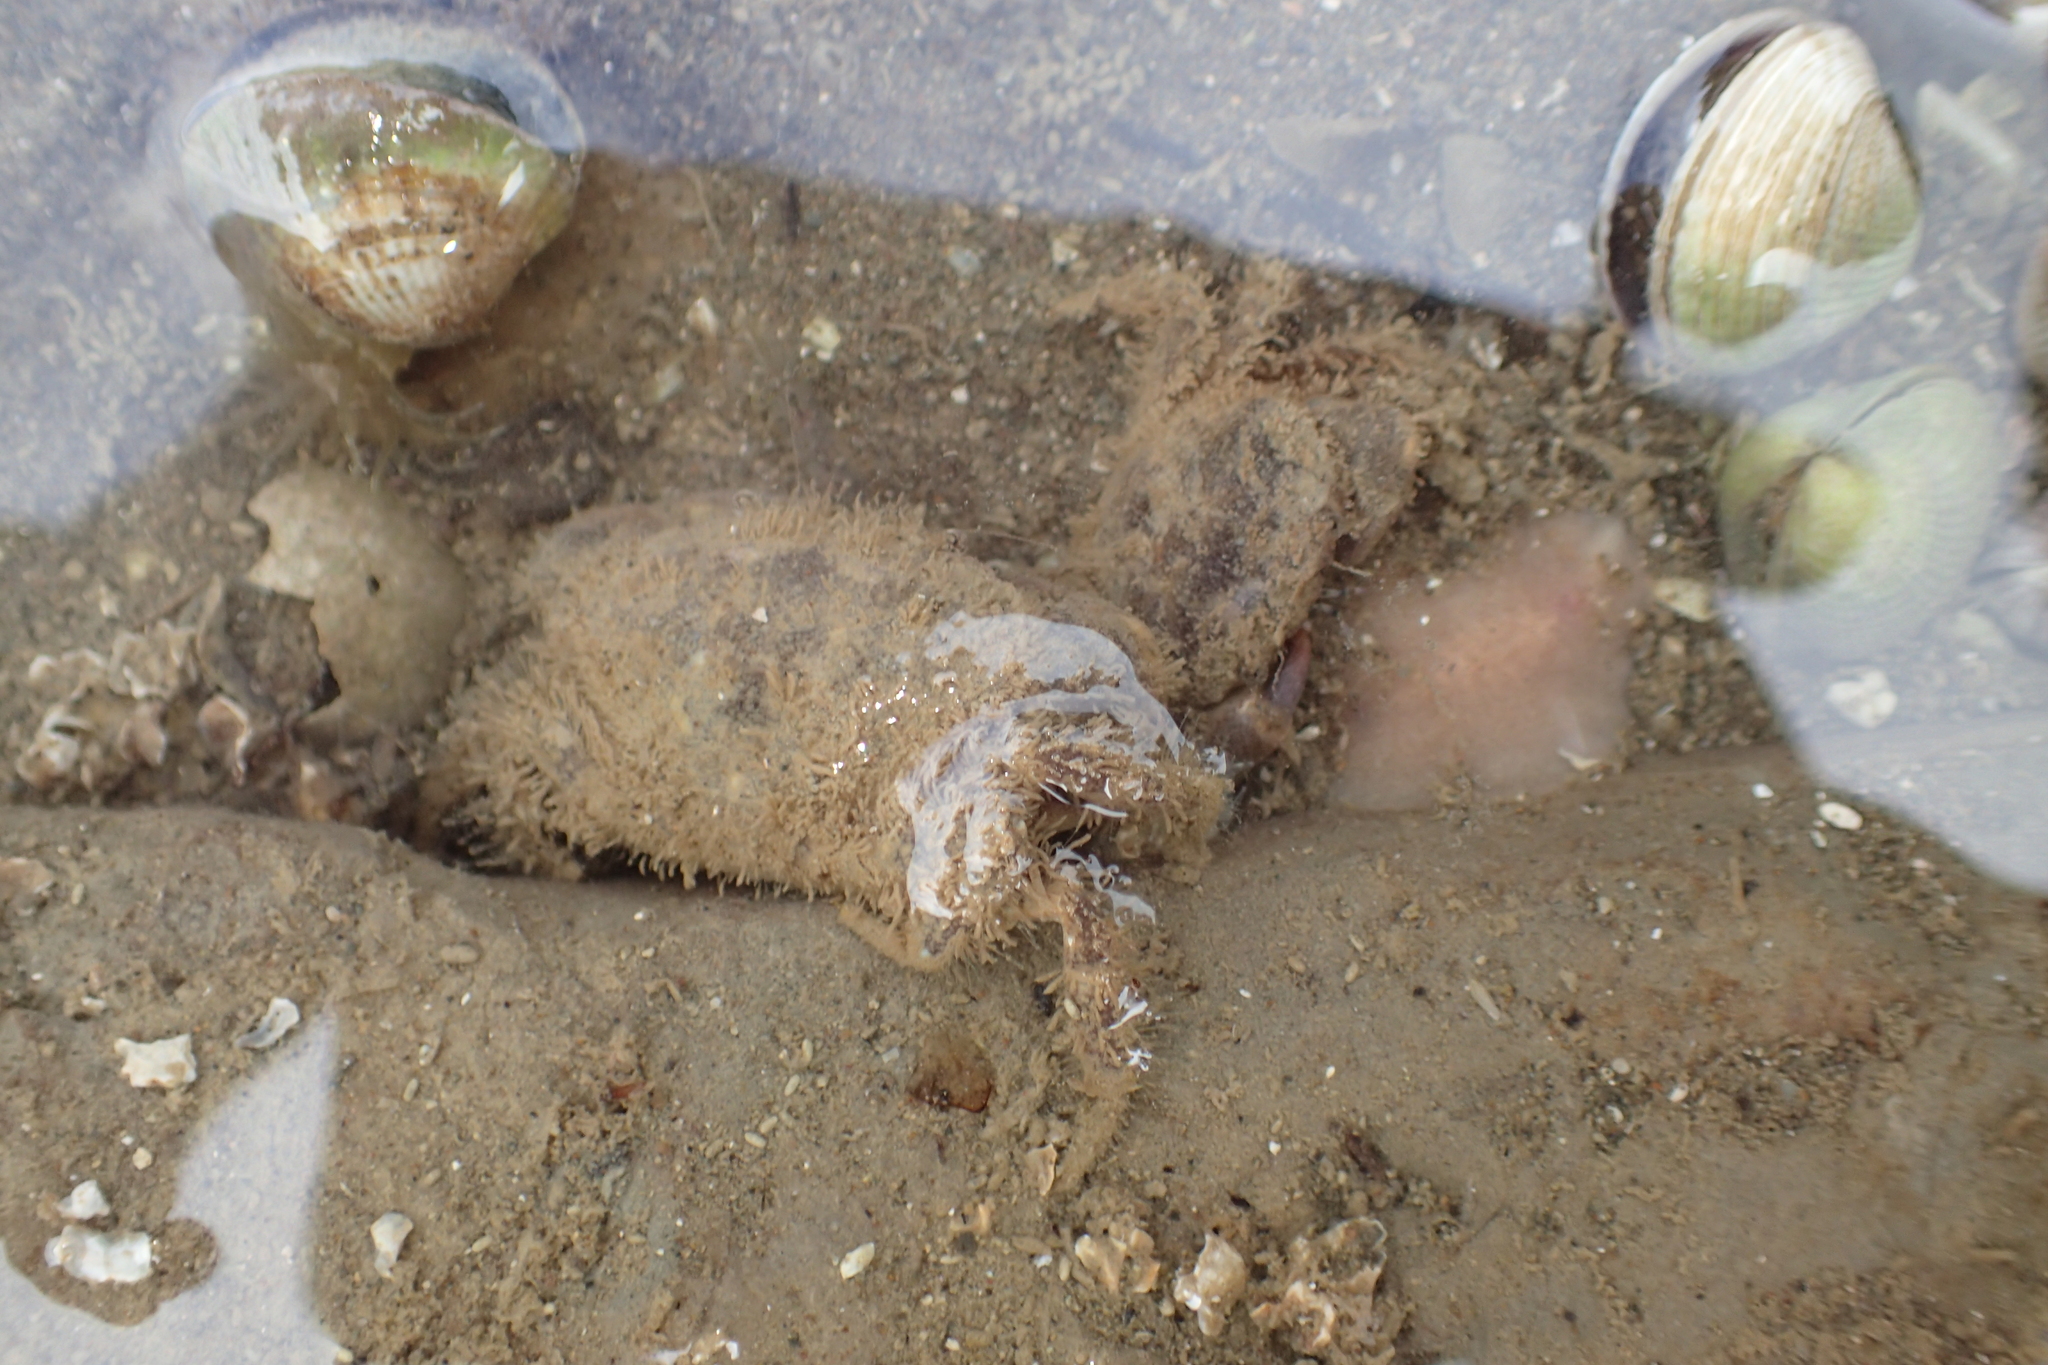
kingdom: Animalia
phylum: Arthropoda
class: Malacostraca
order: Decapoda
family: Pilumnidae
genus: Pilumnopeus
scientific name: Pilumnopeus serratifrons
